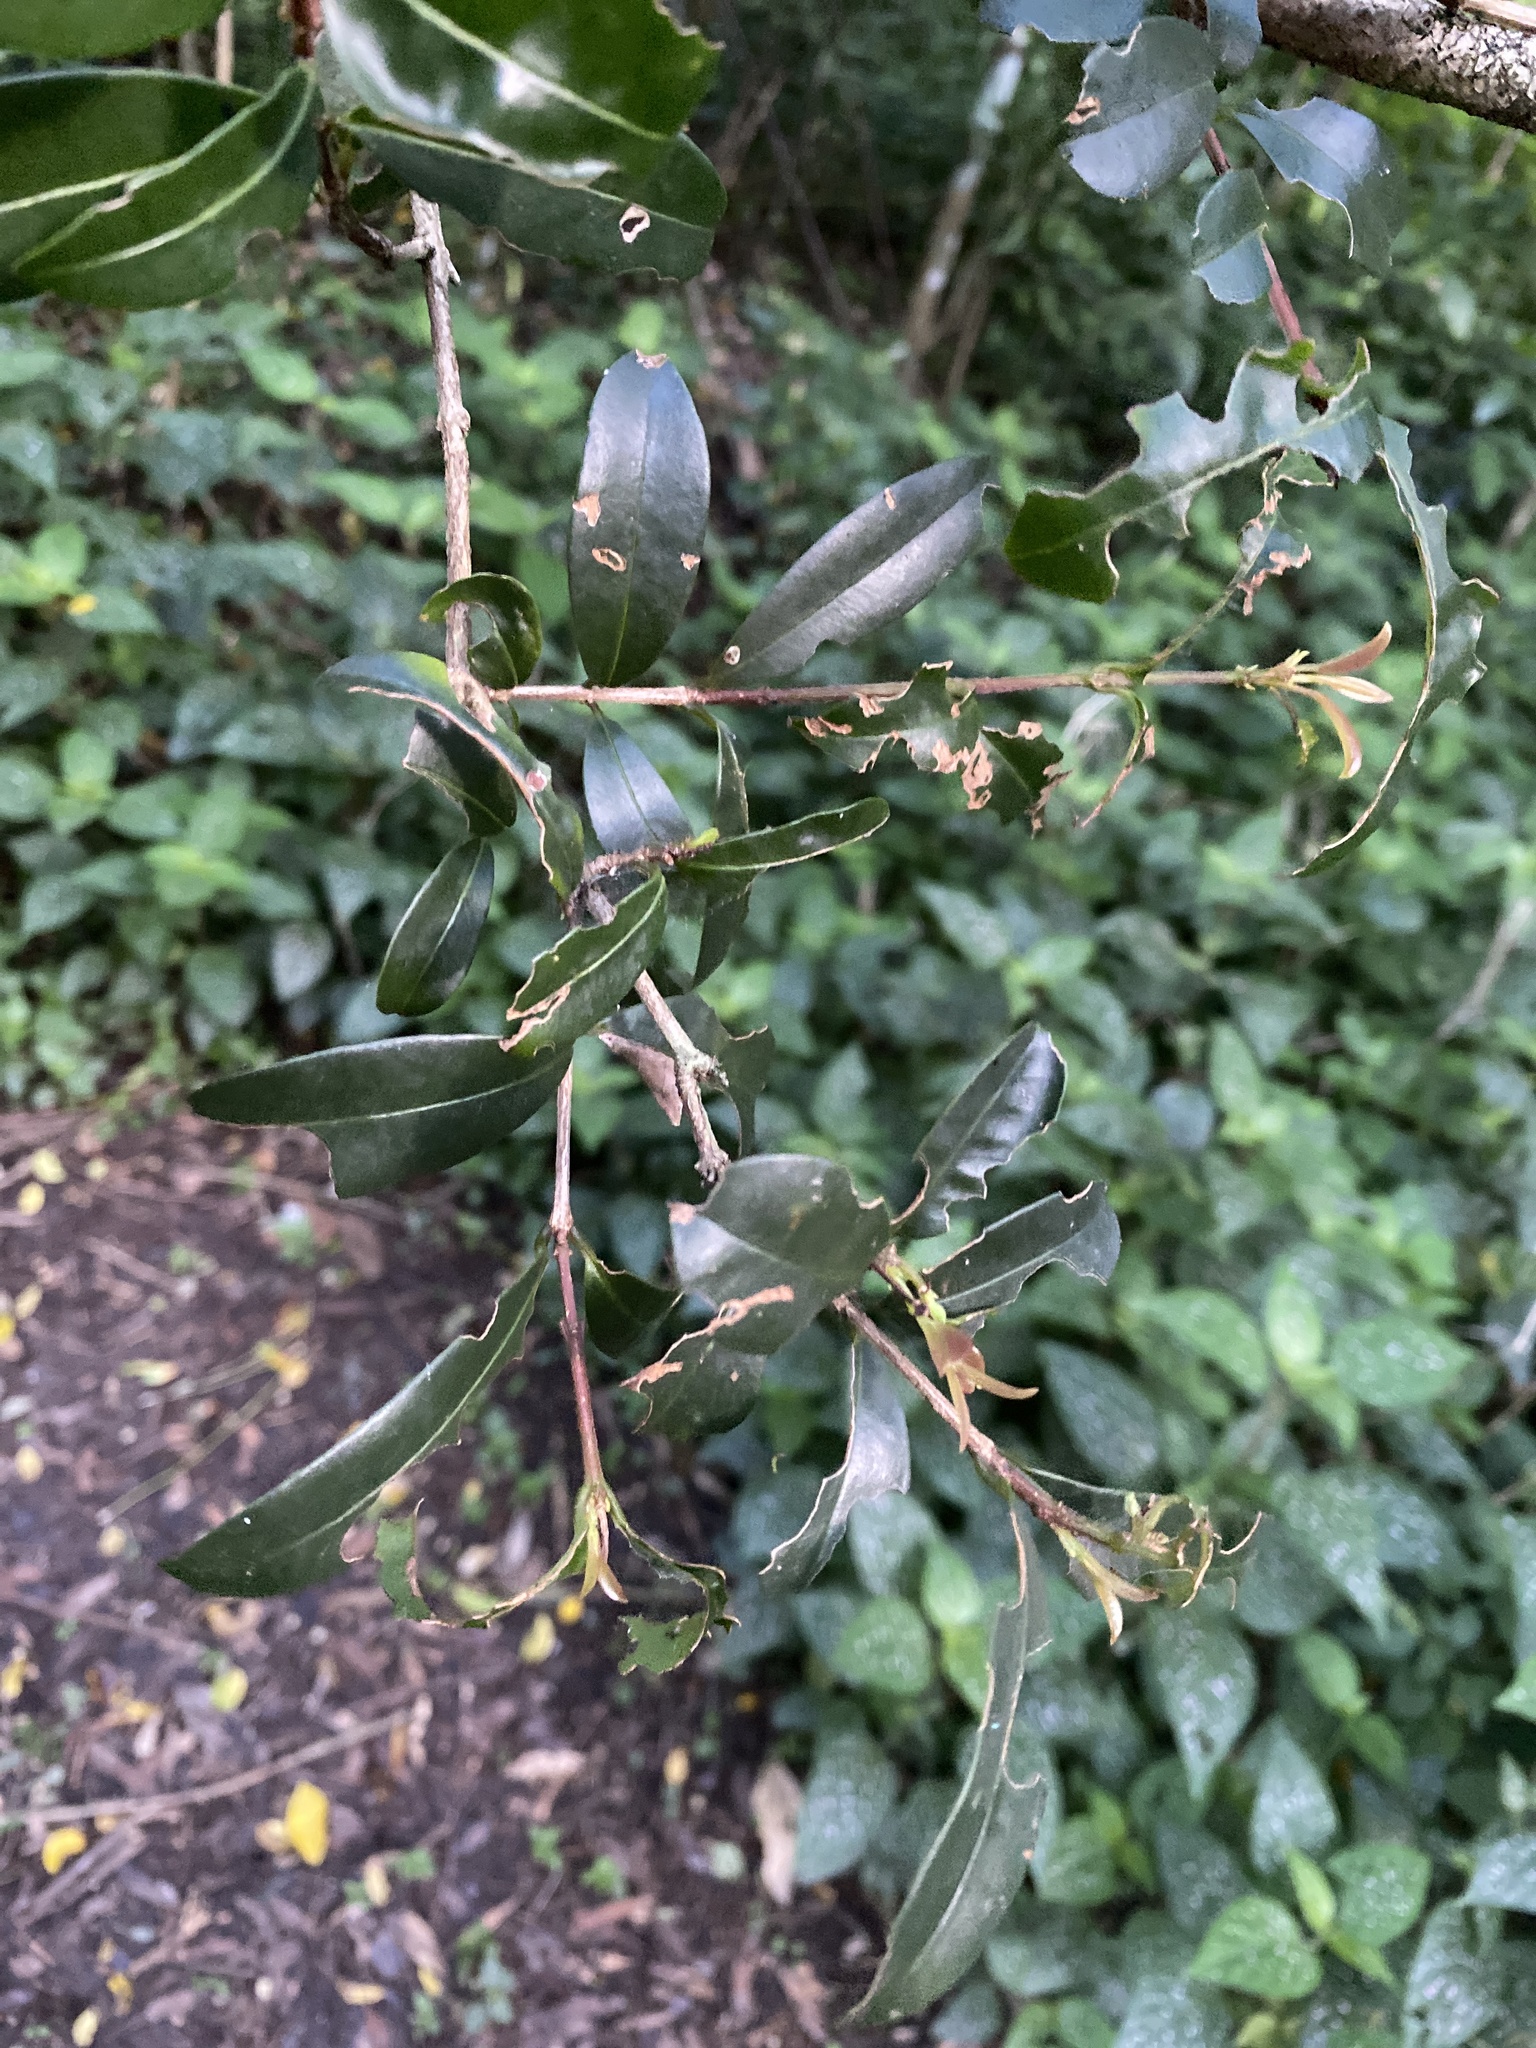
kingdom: Plantae
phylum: Tracheophyta
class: Magnoliopsida
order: Myrtales
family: Myrtaceae
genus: Syzygium
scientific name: Syzygium australe
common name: Australian brush-cherry
